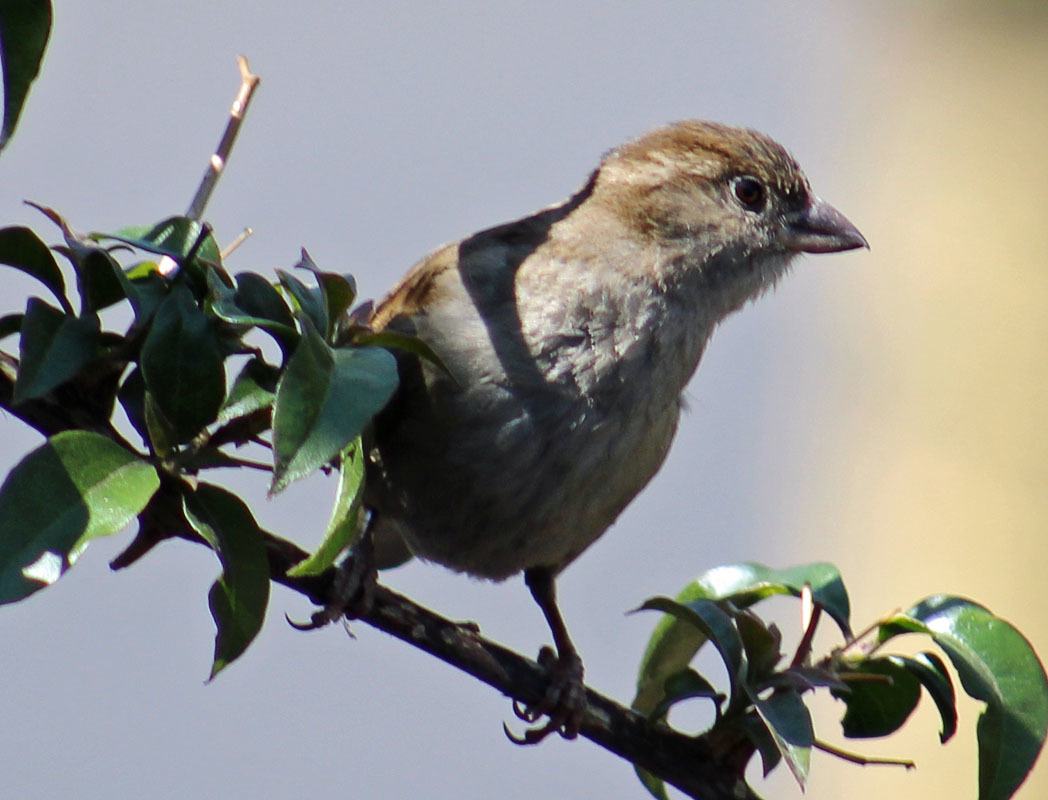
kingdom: Animalia
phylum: Chordata
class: Aves
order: Passeriformes
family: Passeridae
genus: Passer
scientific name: Passer domesticus
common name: House sparrow
